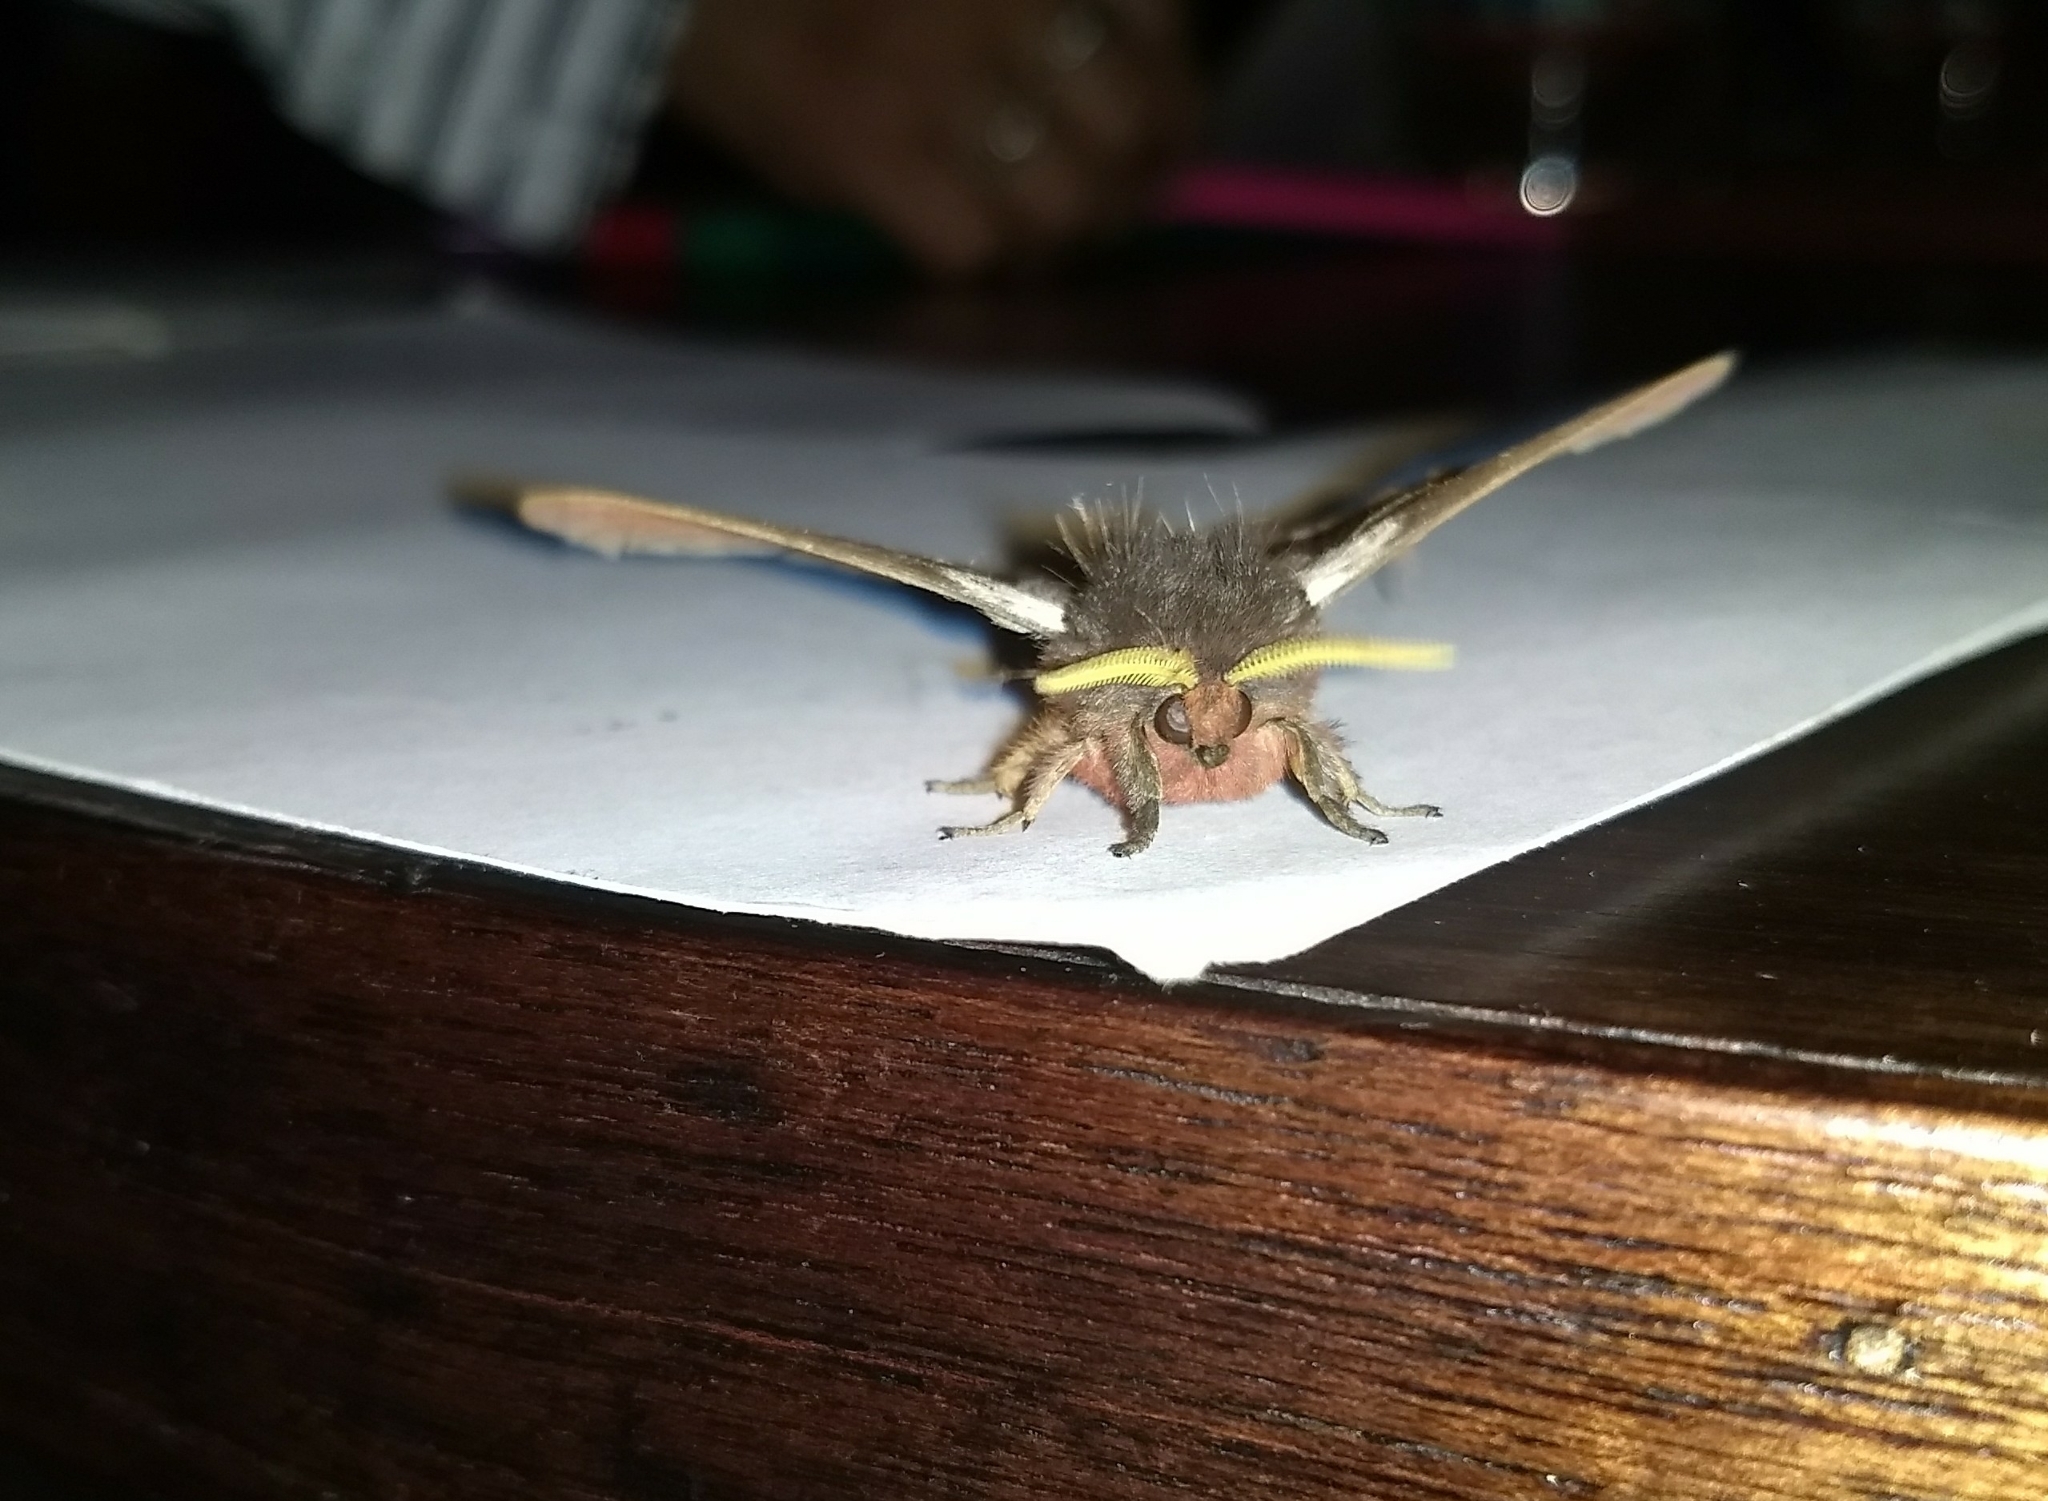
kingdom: Animalia
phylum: Arthropoda
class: Insecta
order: Lepidoptera
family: Saturniidae
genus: Dirphia
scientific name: Dirphia
